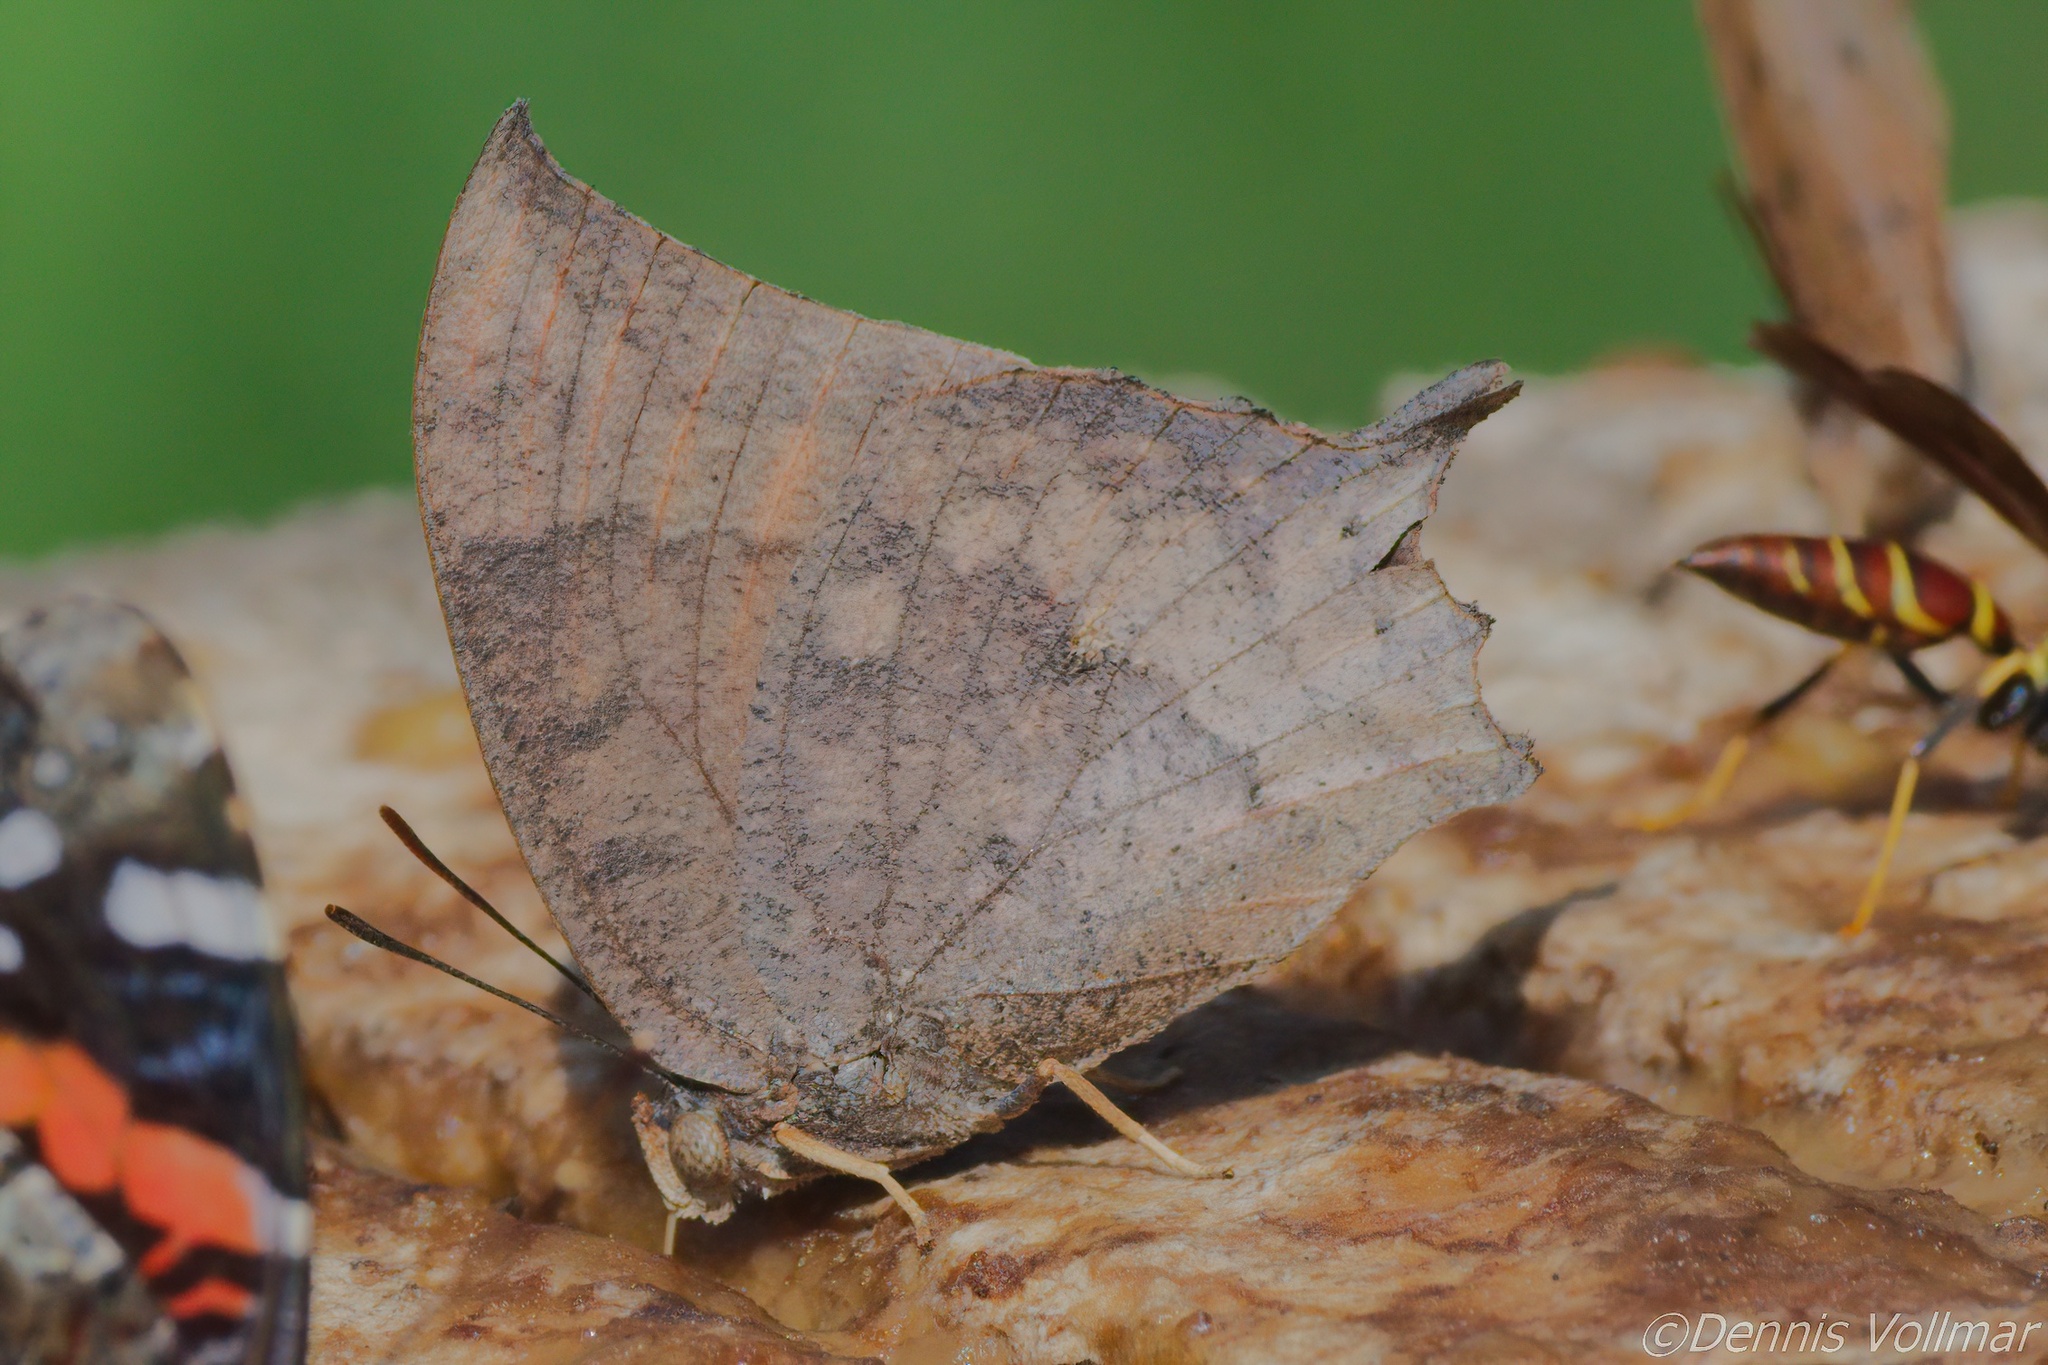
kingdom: Animalia
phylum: Arthropoda
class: Insecta
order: Lepidoptera
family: Nymphalidae
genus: Anaea
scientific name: Anaea aidea
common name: Tropical leafwing
